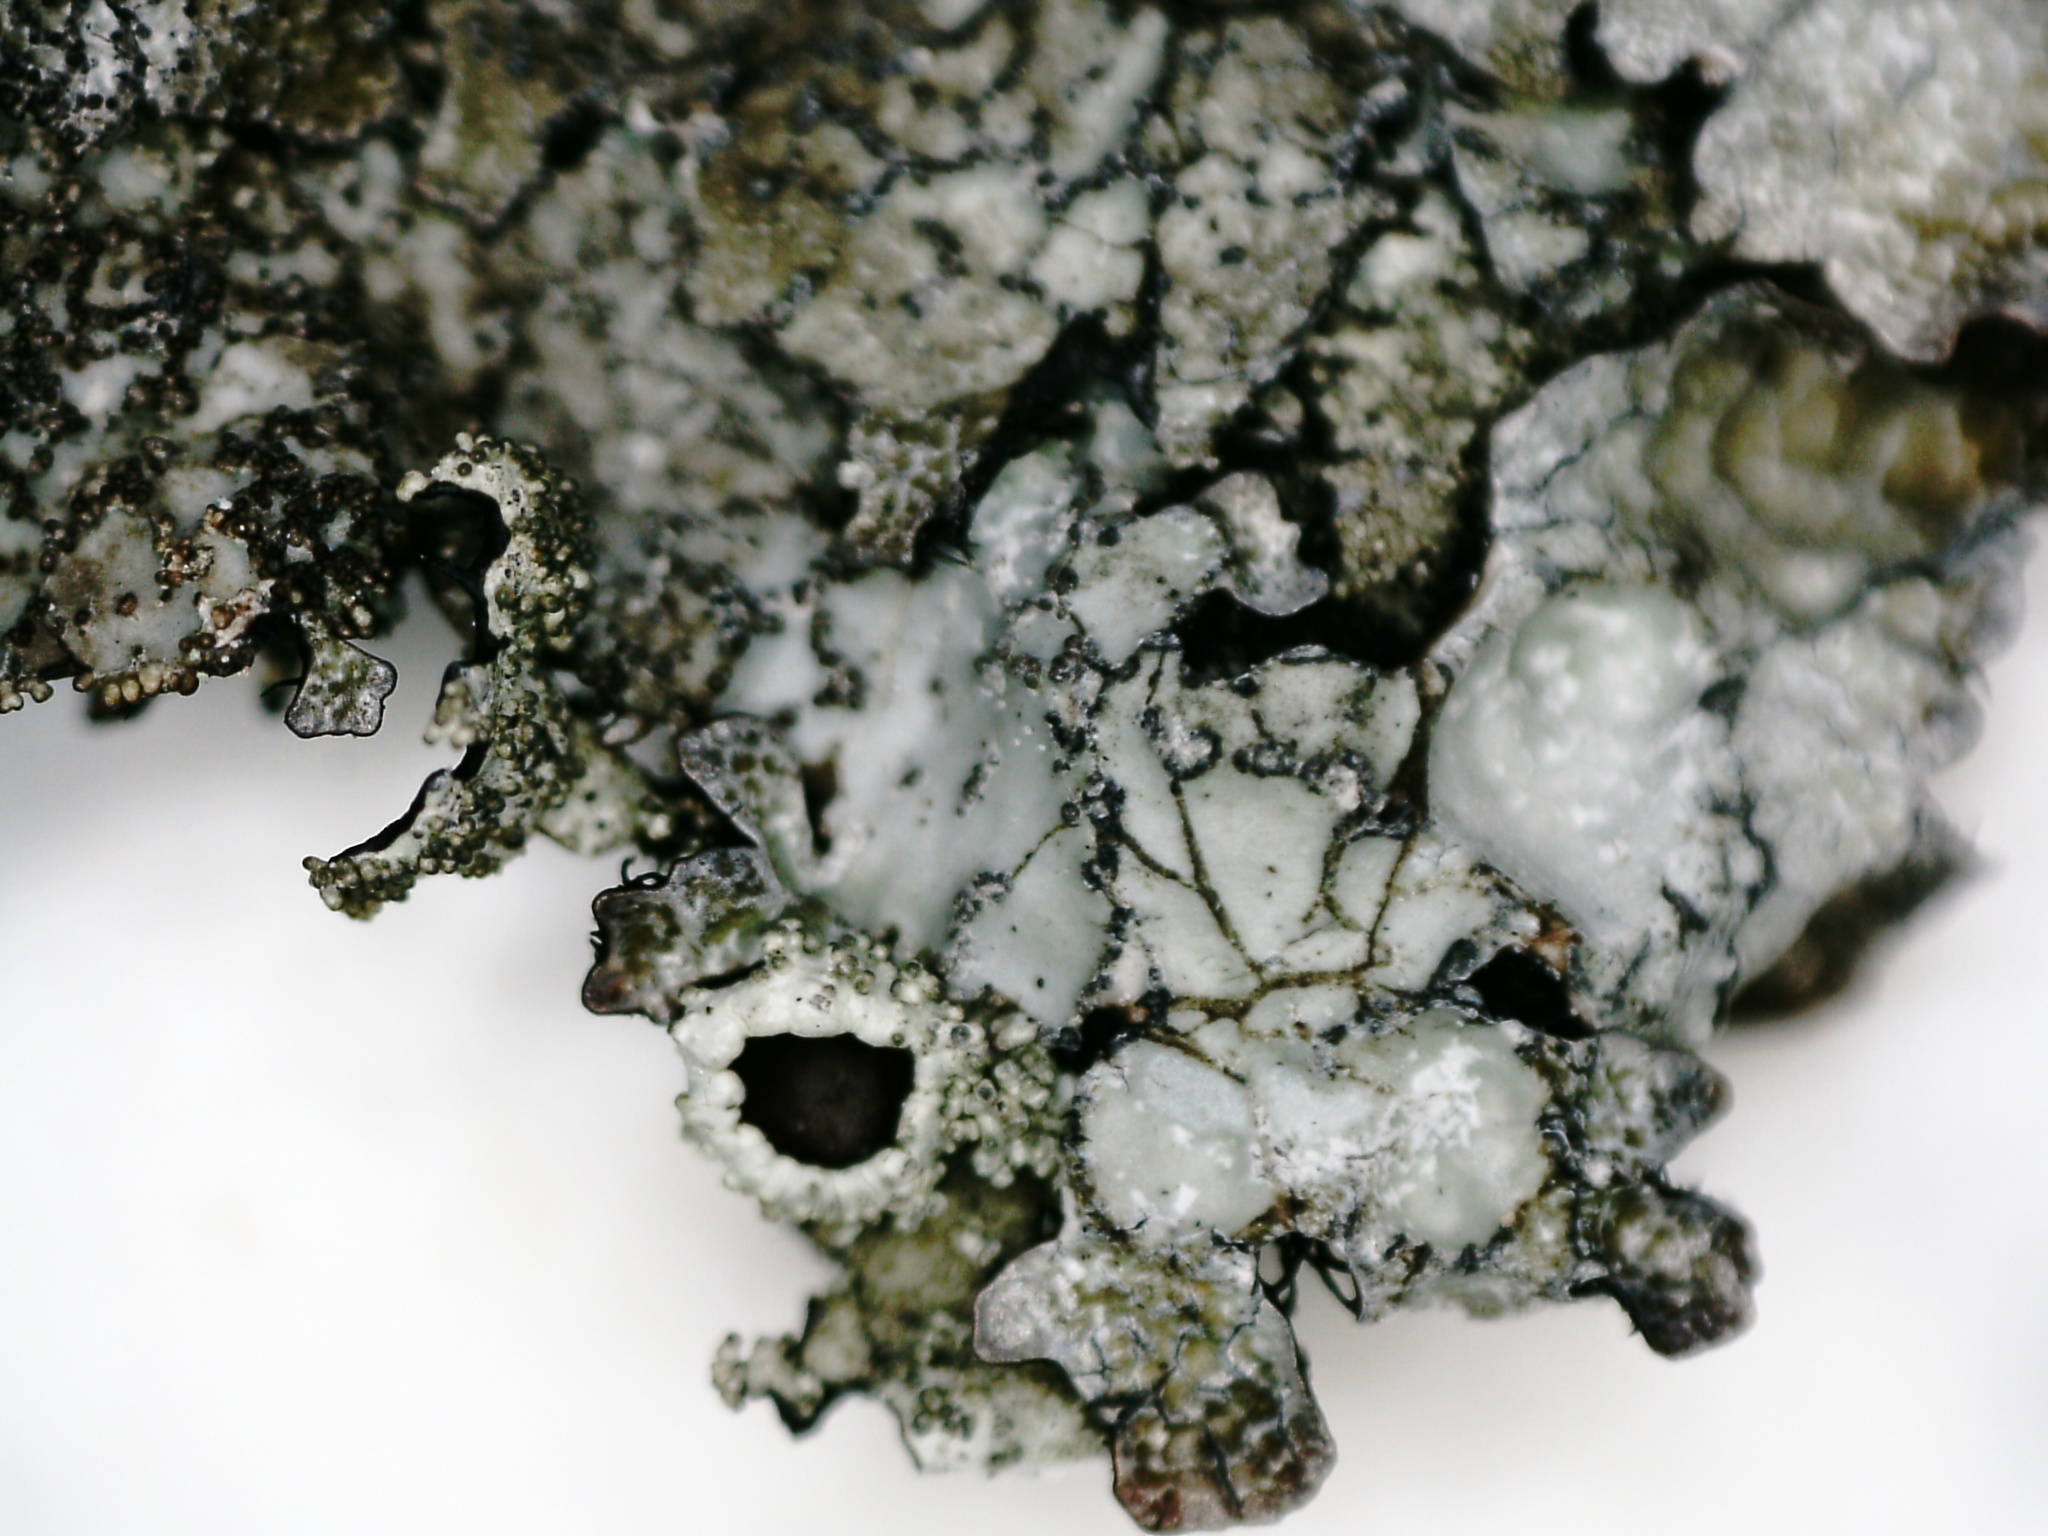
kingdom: Fungi
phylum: Ascomycota
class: Lecanoromycetes
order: Lecanorales
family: Parmeliaceae
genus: Parmelia
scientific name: Parmelia saxatilis
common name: Salted shield lichen
